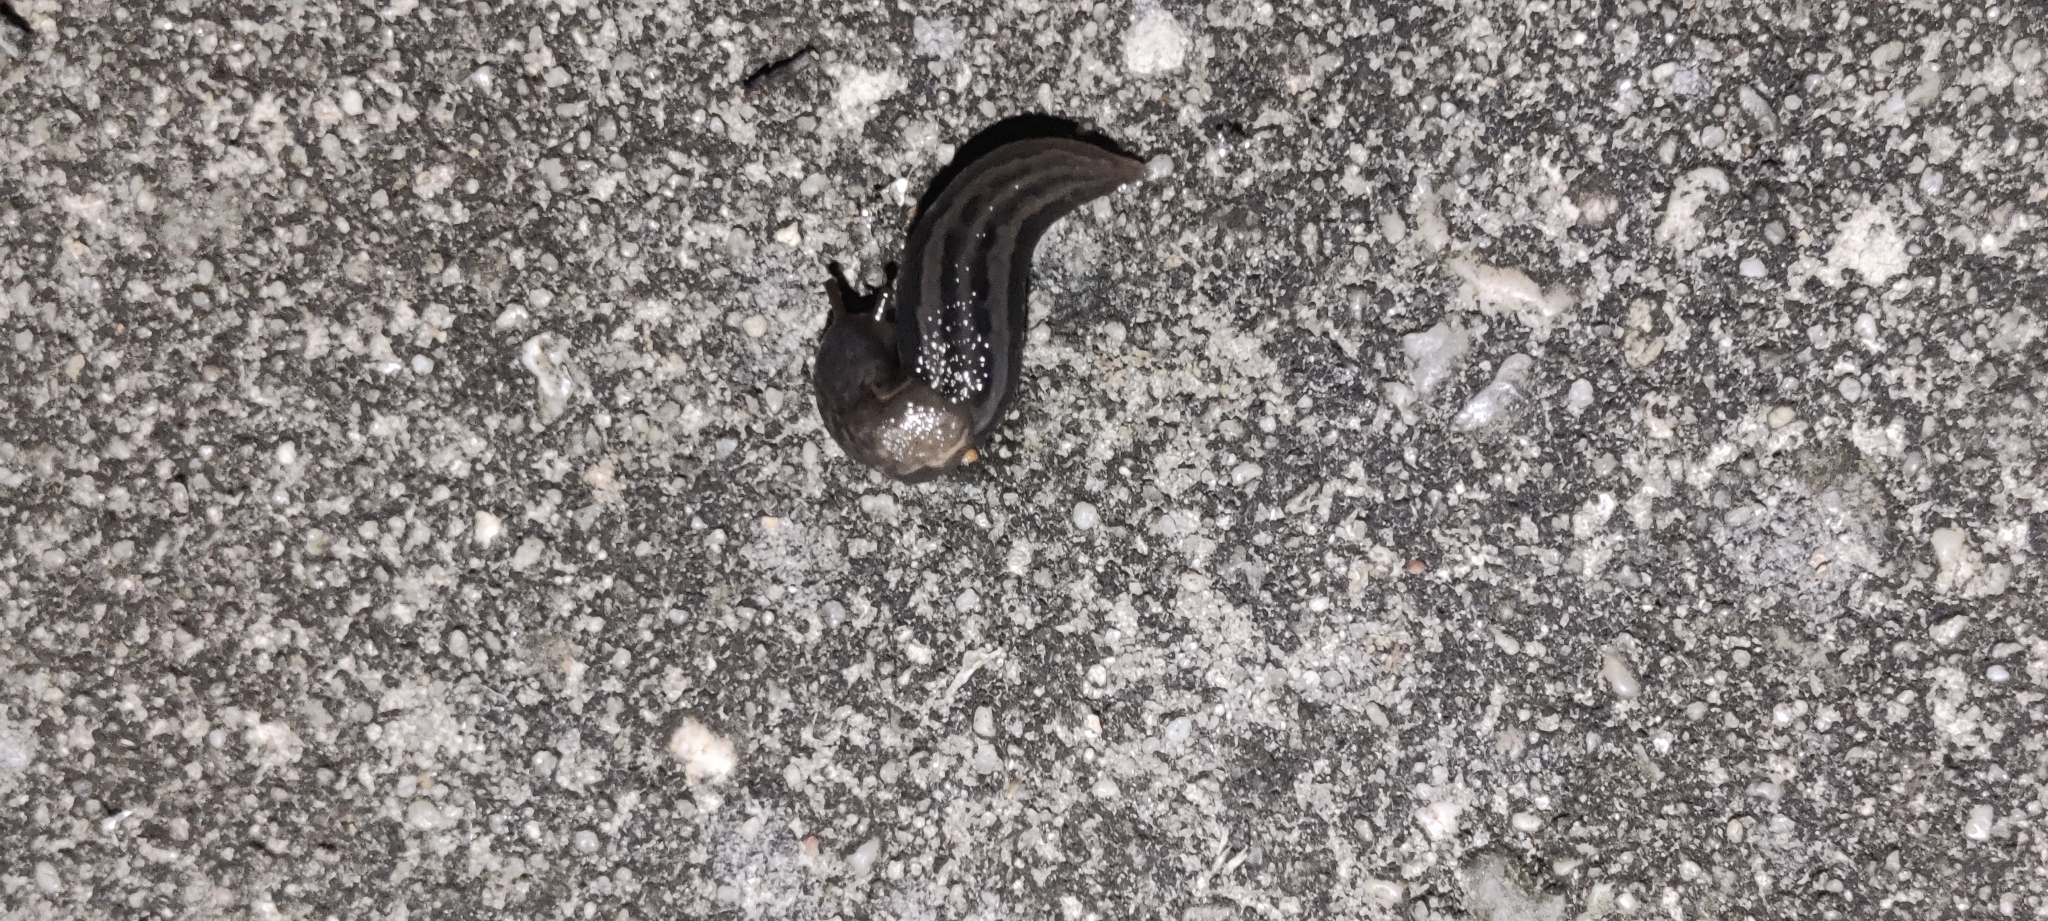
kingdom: Animalia
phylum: Mollusca
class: Gastropoda
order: Stylommatophora
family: Limacidae
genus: Limax
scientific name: Limax maximus
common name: Great grey slug
